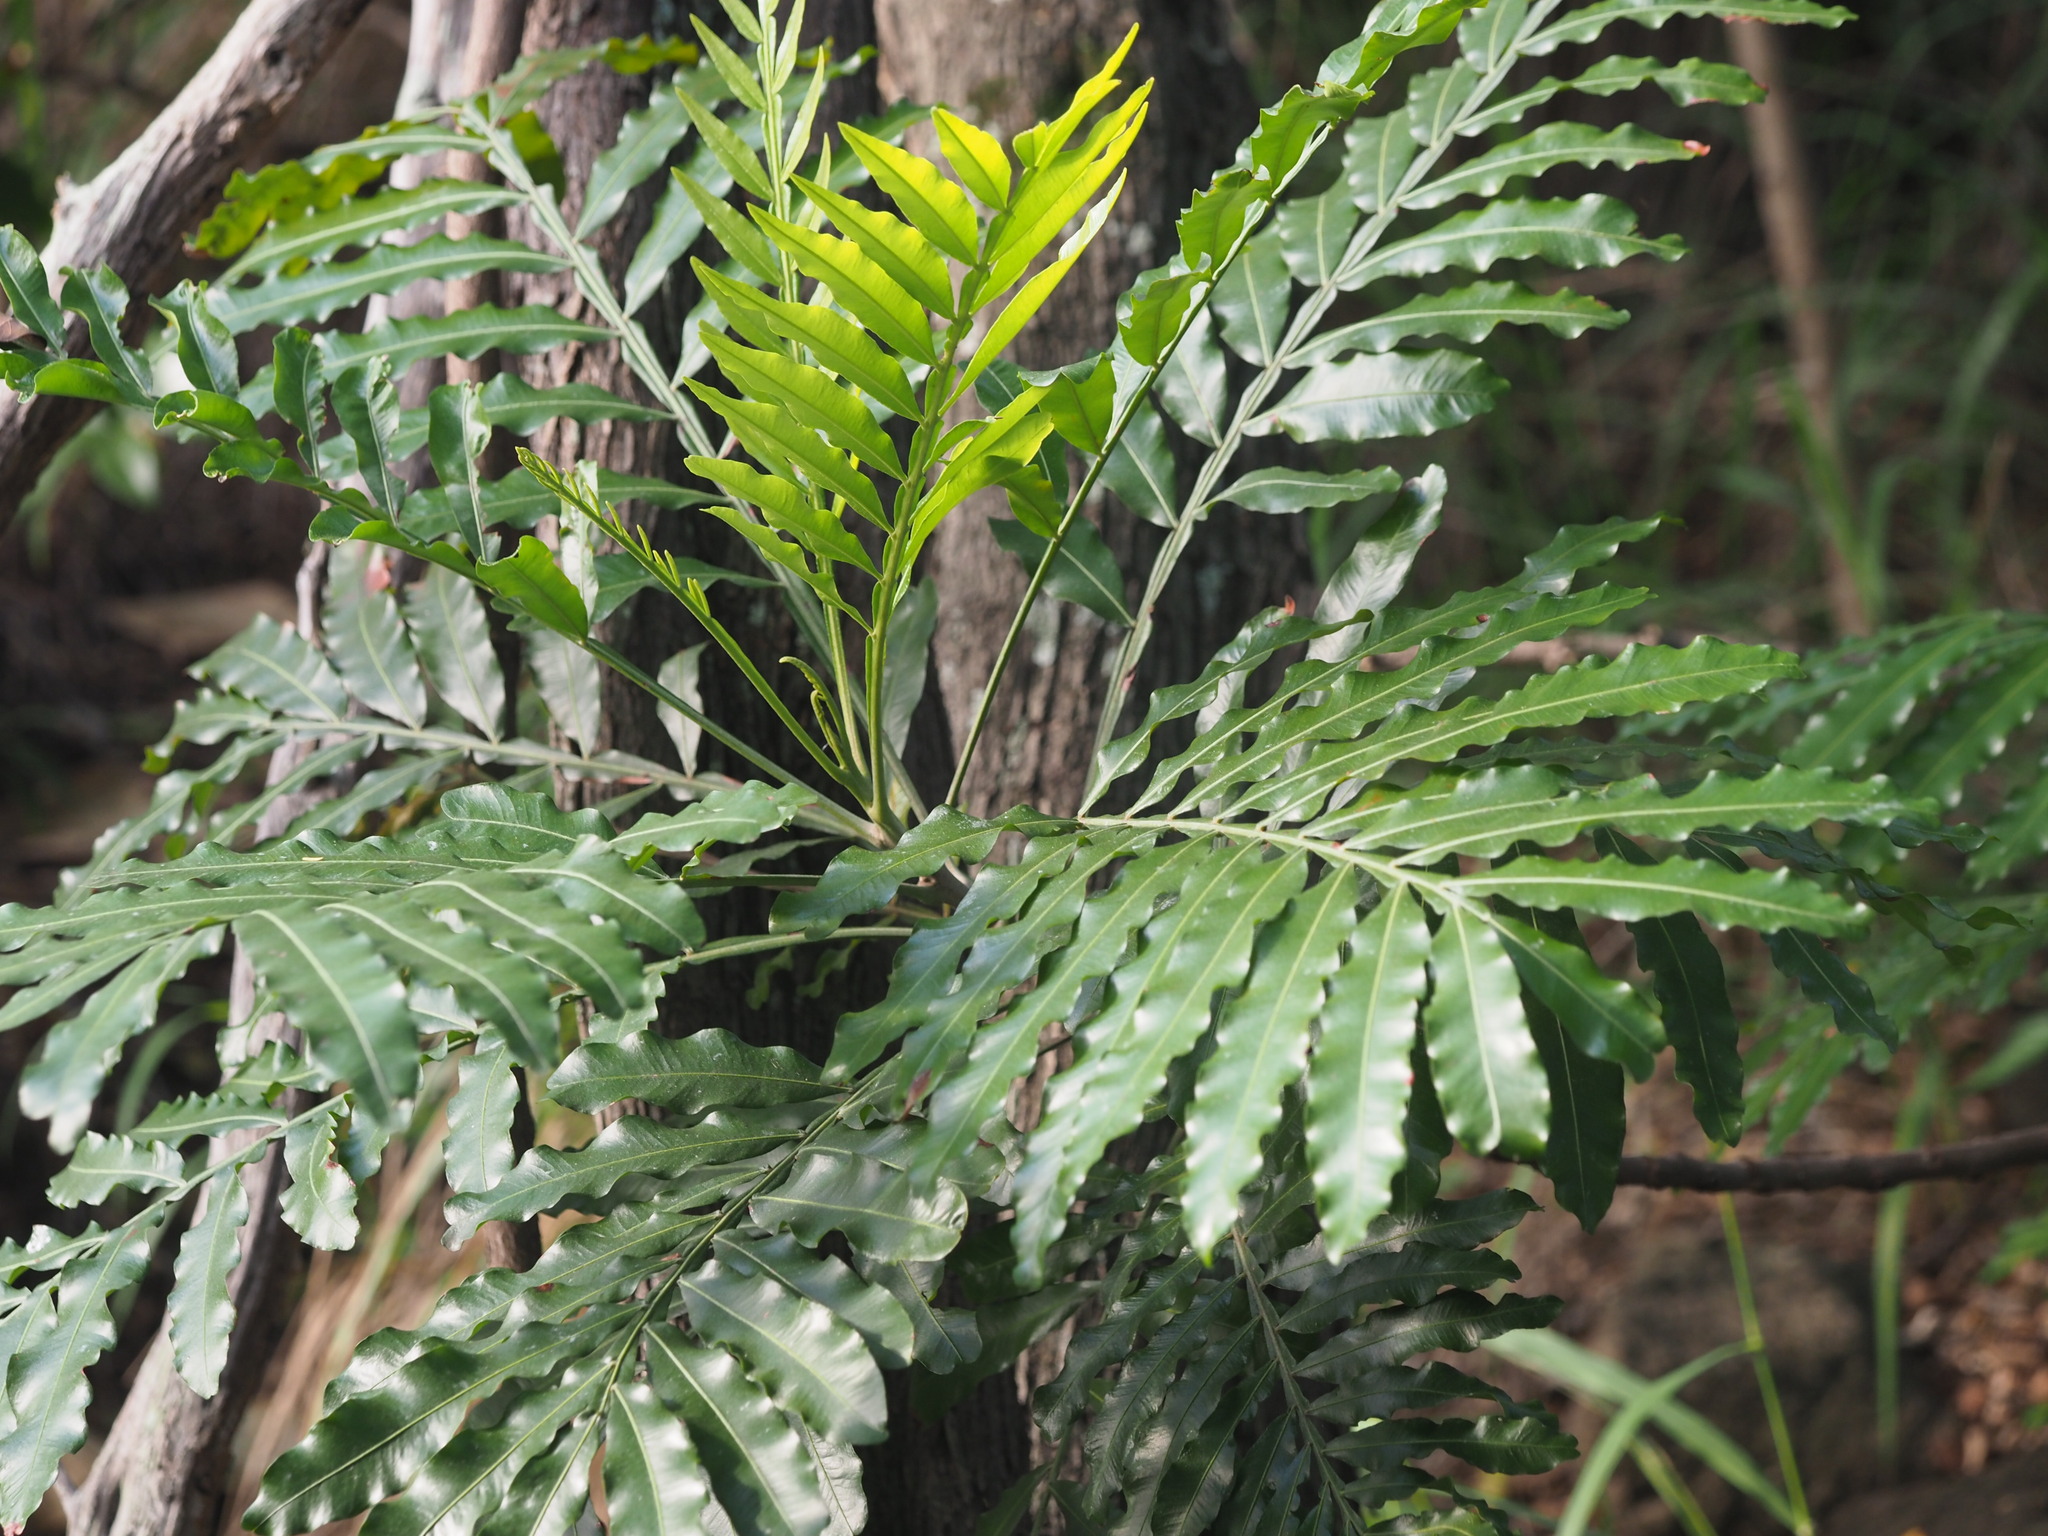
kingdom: Plantae
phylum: Tracheophyta
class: Magnoliopsida
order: Sapindales
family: Sapindaceae
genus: Filicium
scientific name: Filicium decipiens
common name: Ferntree
